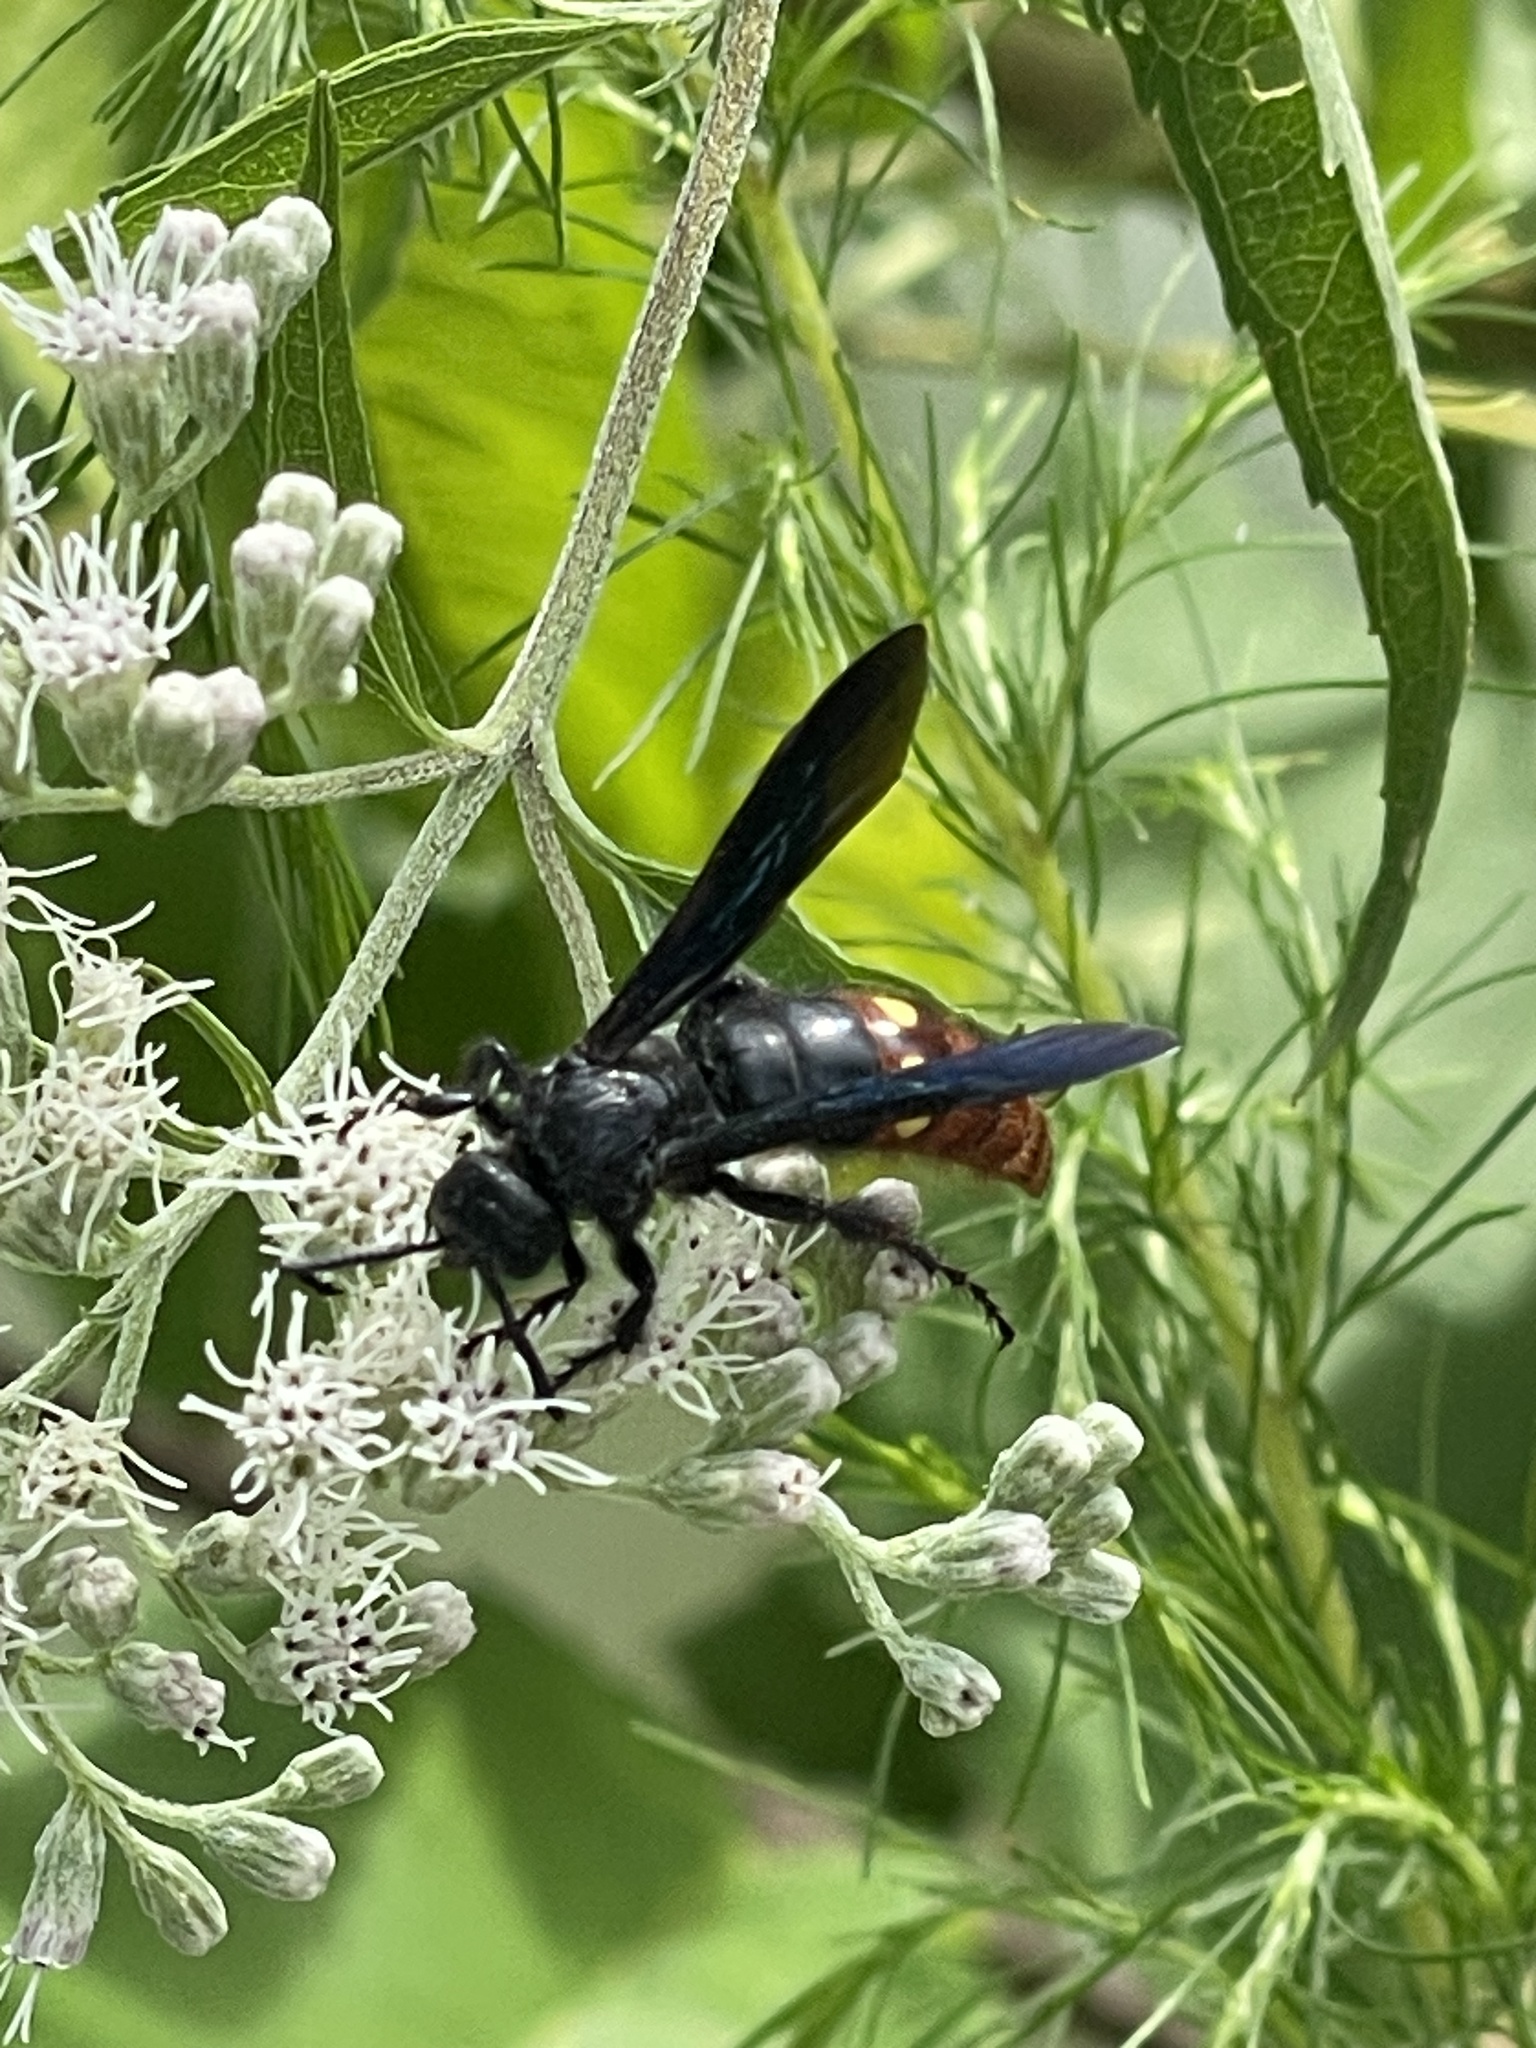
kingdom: Animalia
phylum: Arthropoda
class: Insecta
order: Hymenoptera
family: Scoliidae
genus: Scolia
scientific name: Scolia dubia
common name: Blue-winged scoliid wasp
